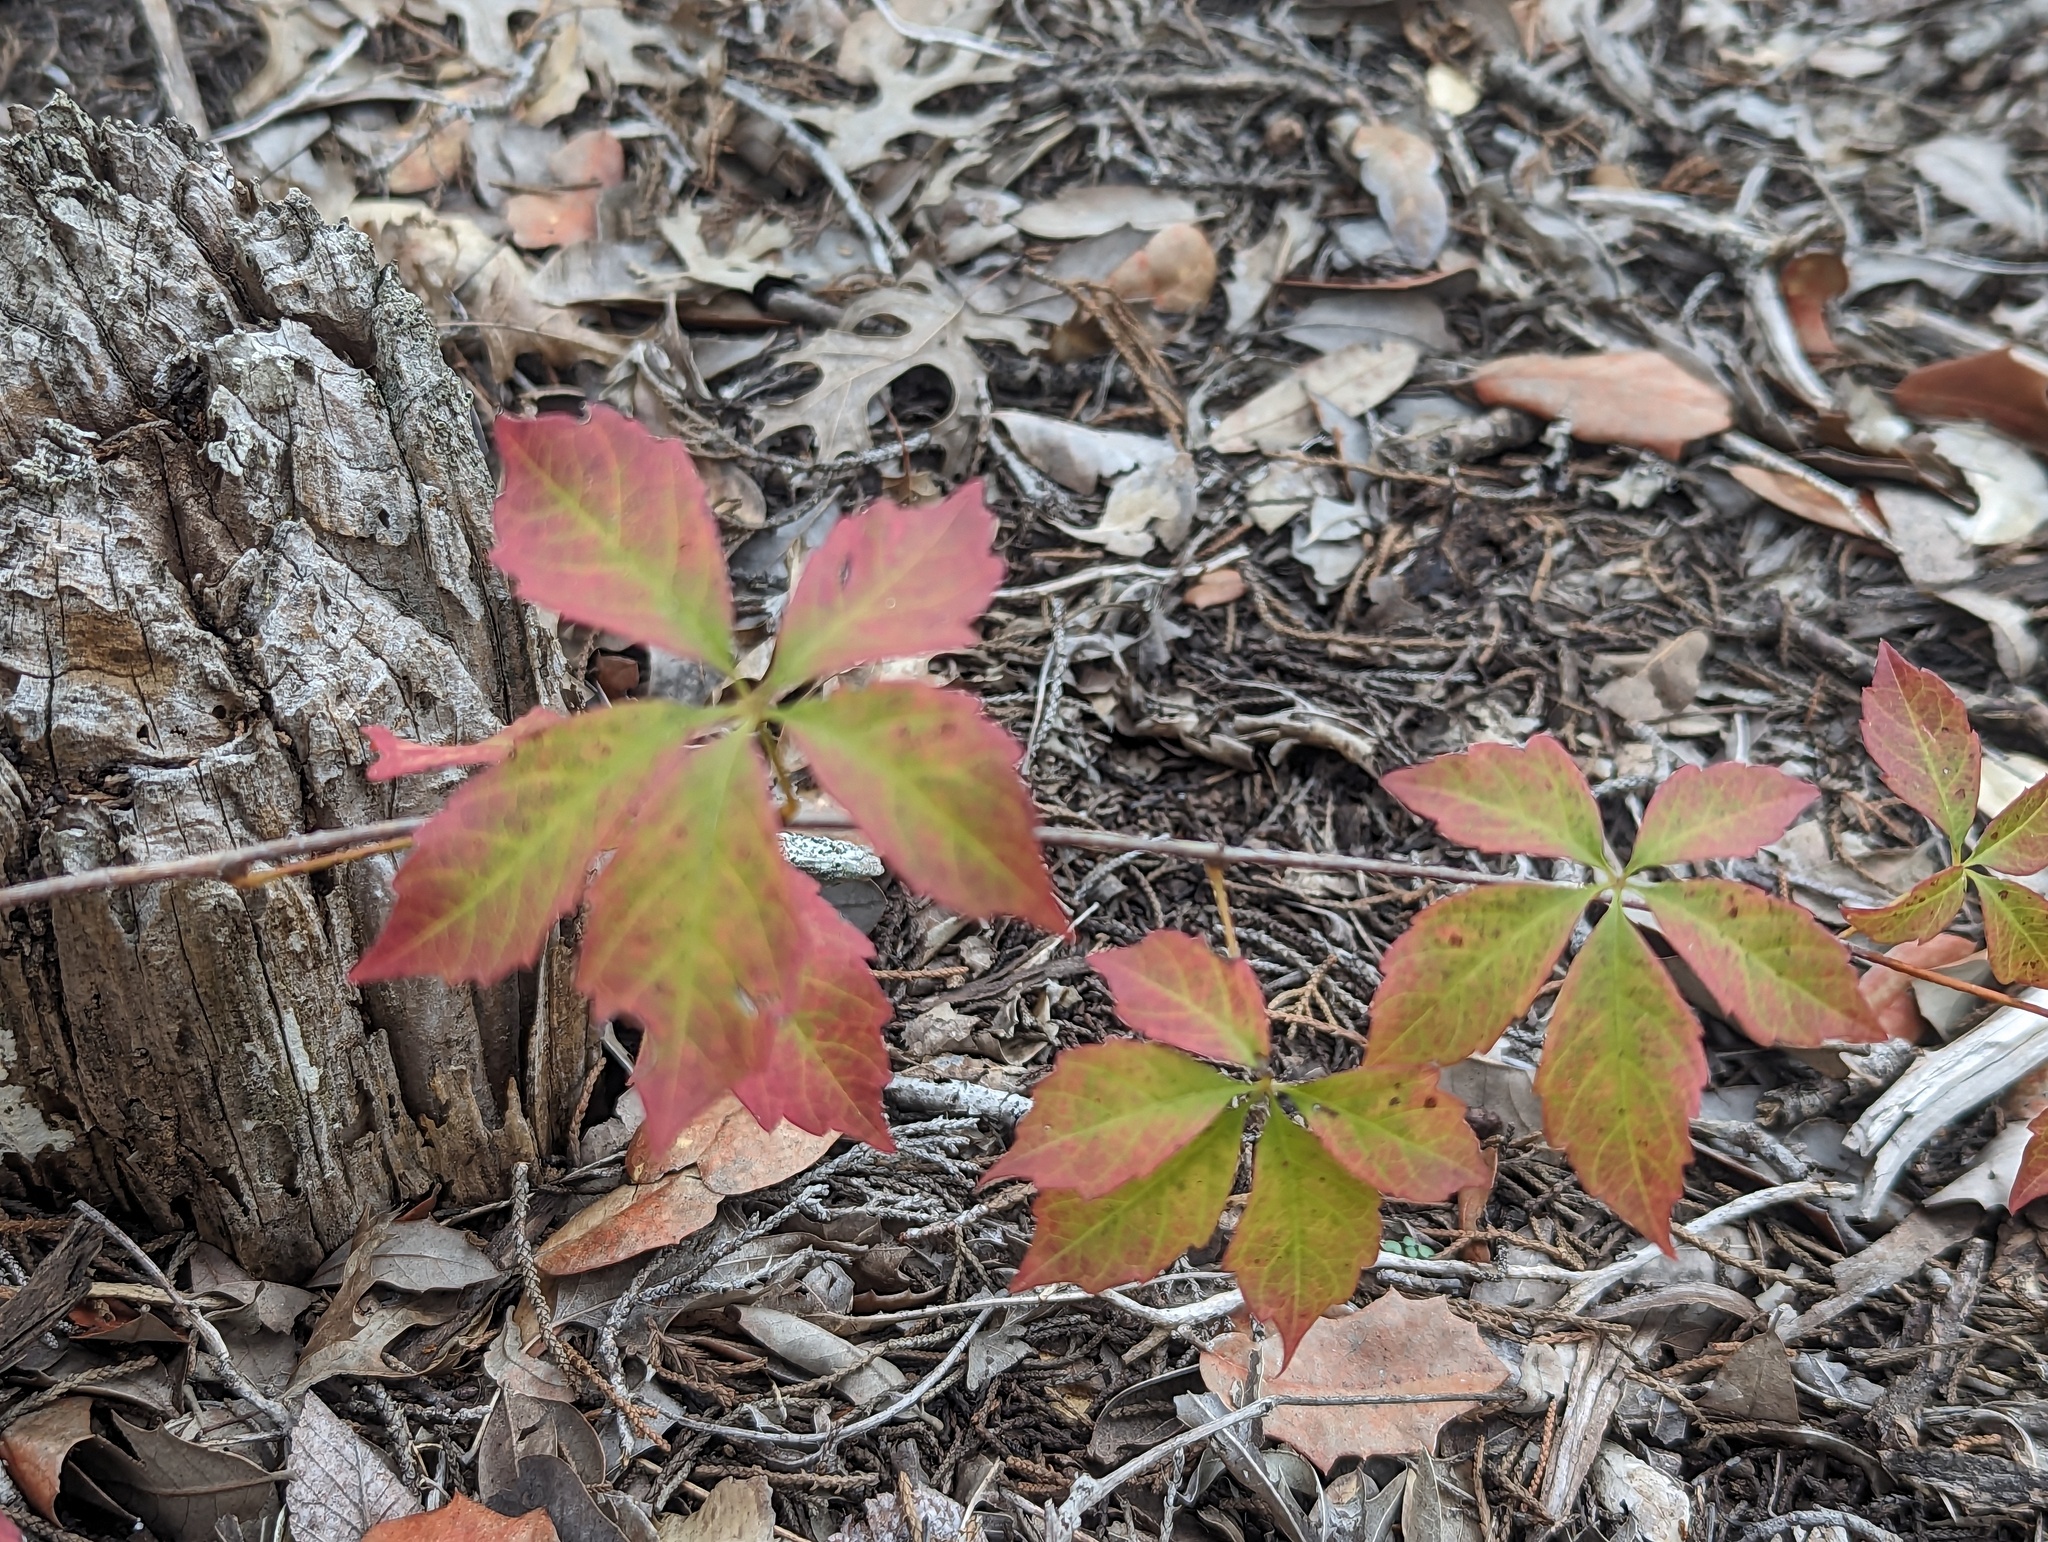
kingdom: Plantae
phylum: Tracheophyta
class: Magnoliopsida
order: Vitales
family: Vitaceae
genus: Parthenocissus
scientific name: Parthenocissus quinquefolia
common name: Virginia-creeper
